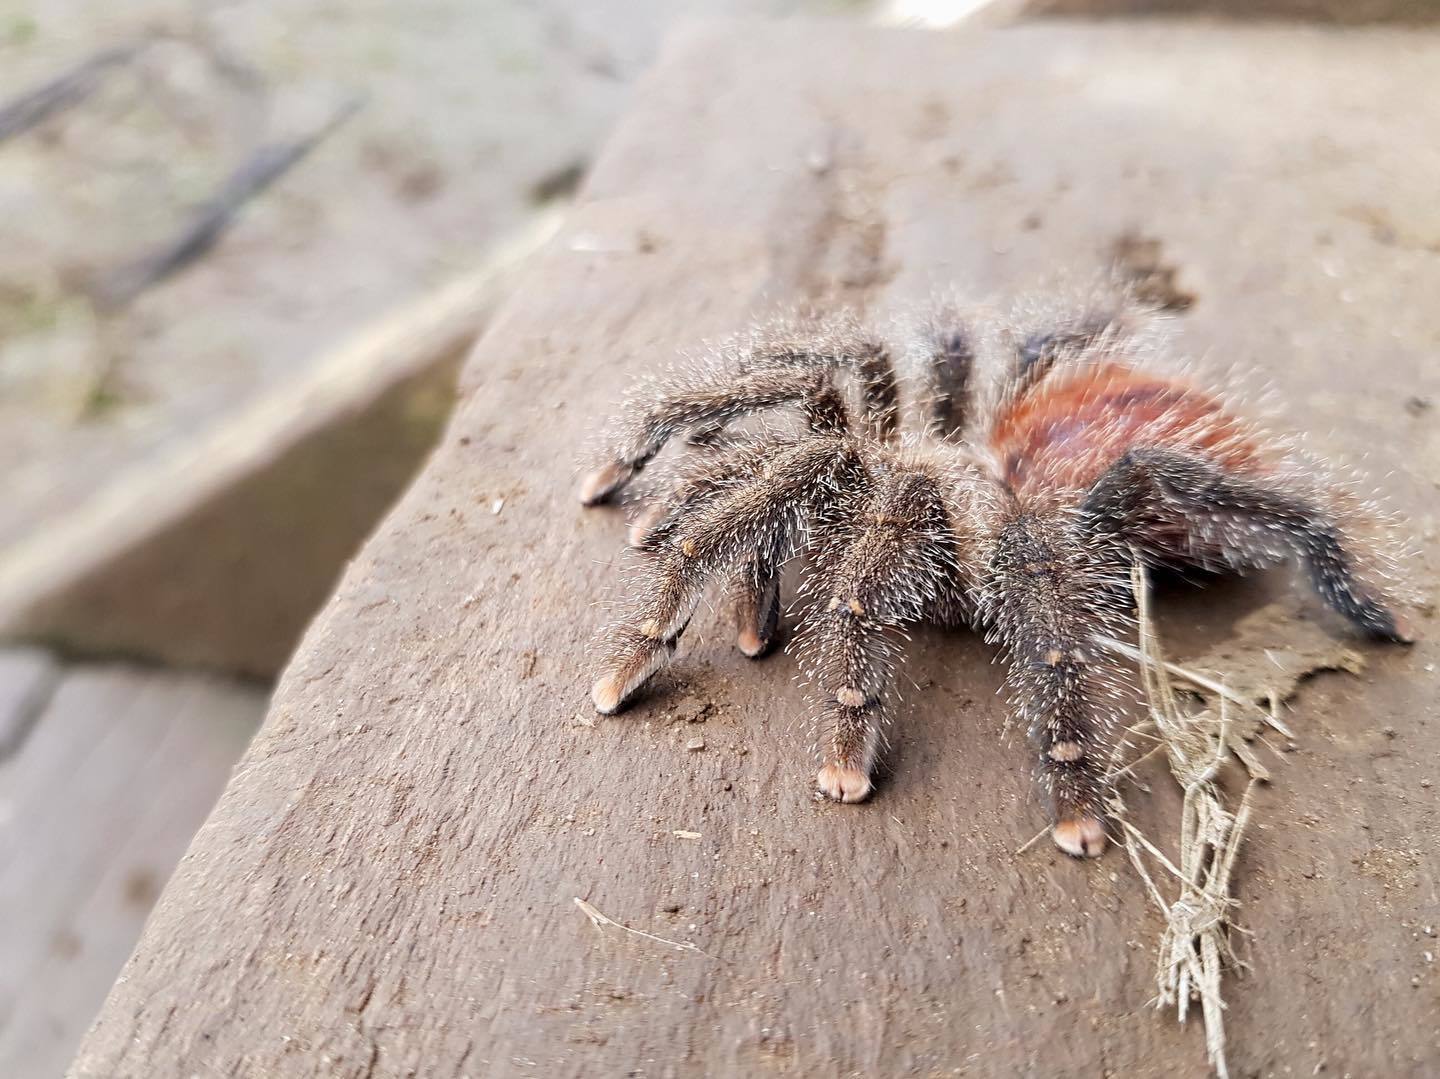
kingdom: Animalia
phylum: Arthropoda
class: Arachnida
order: Araneae
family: Theraphosidae
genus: Avicularia
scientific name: Avicularia juruensis
